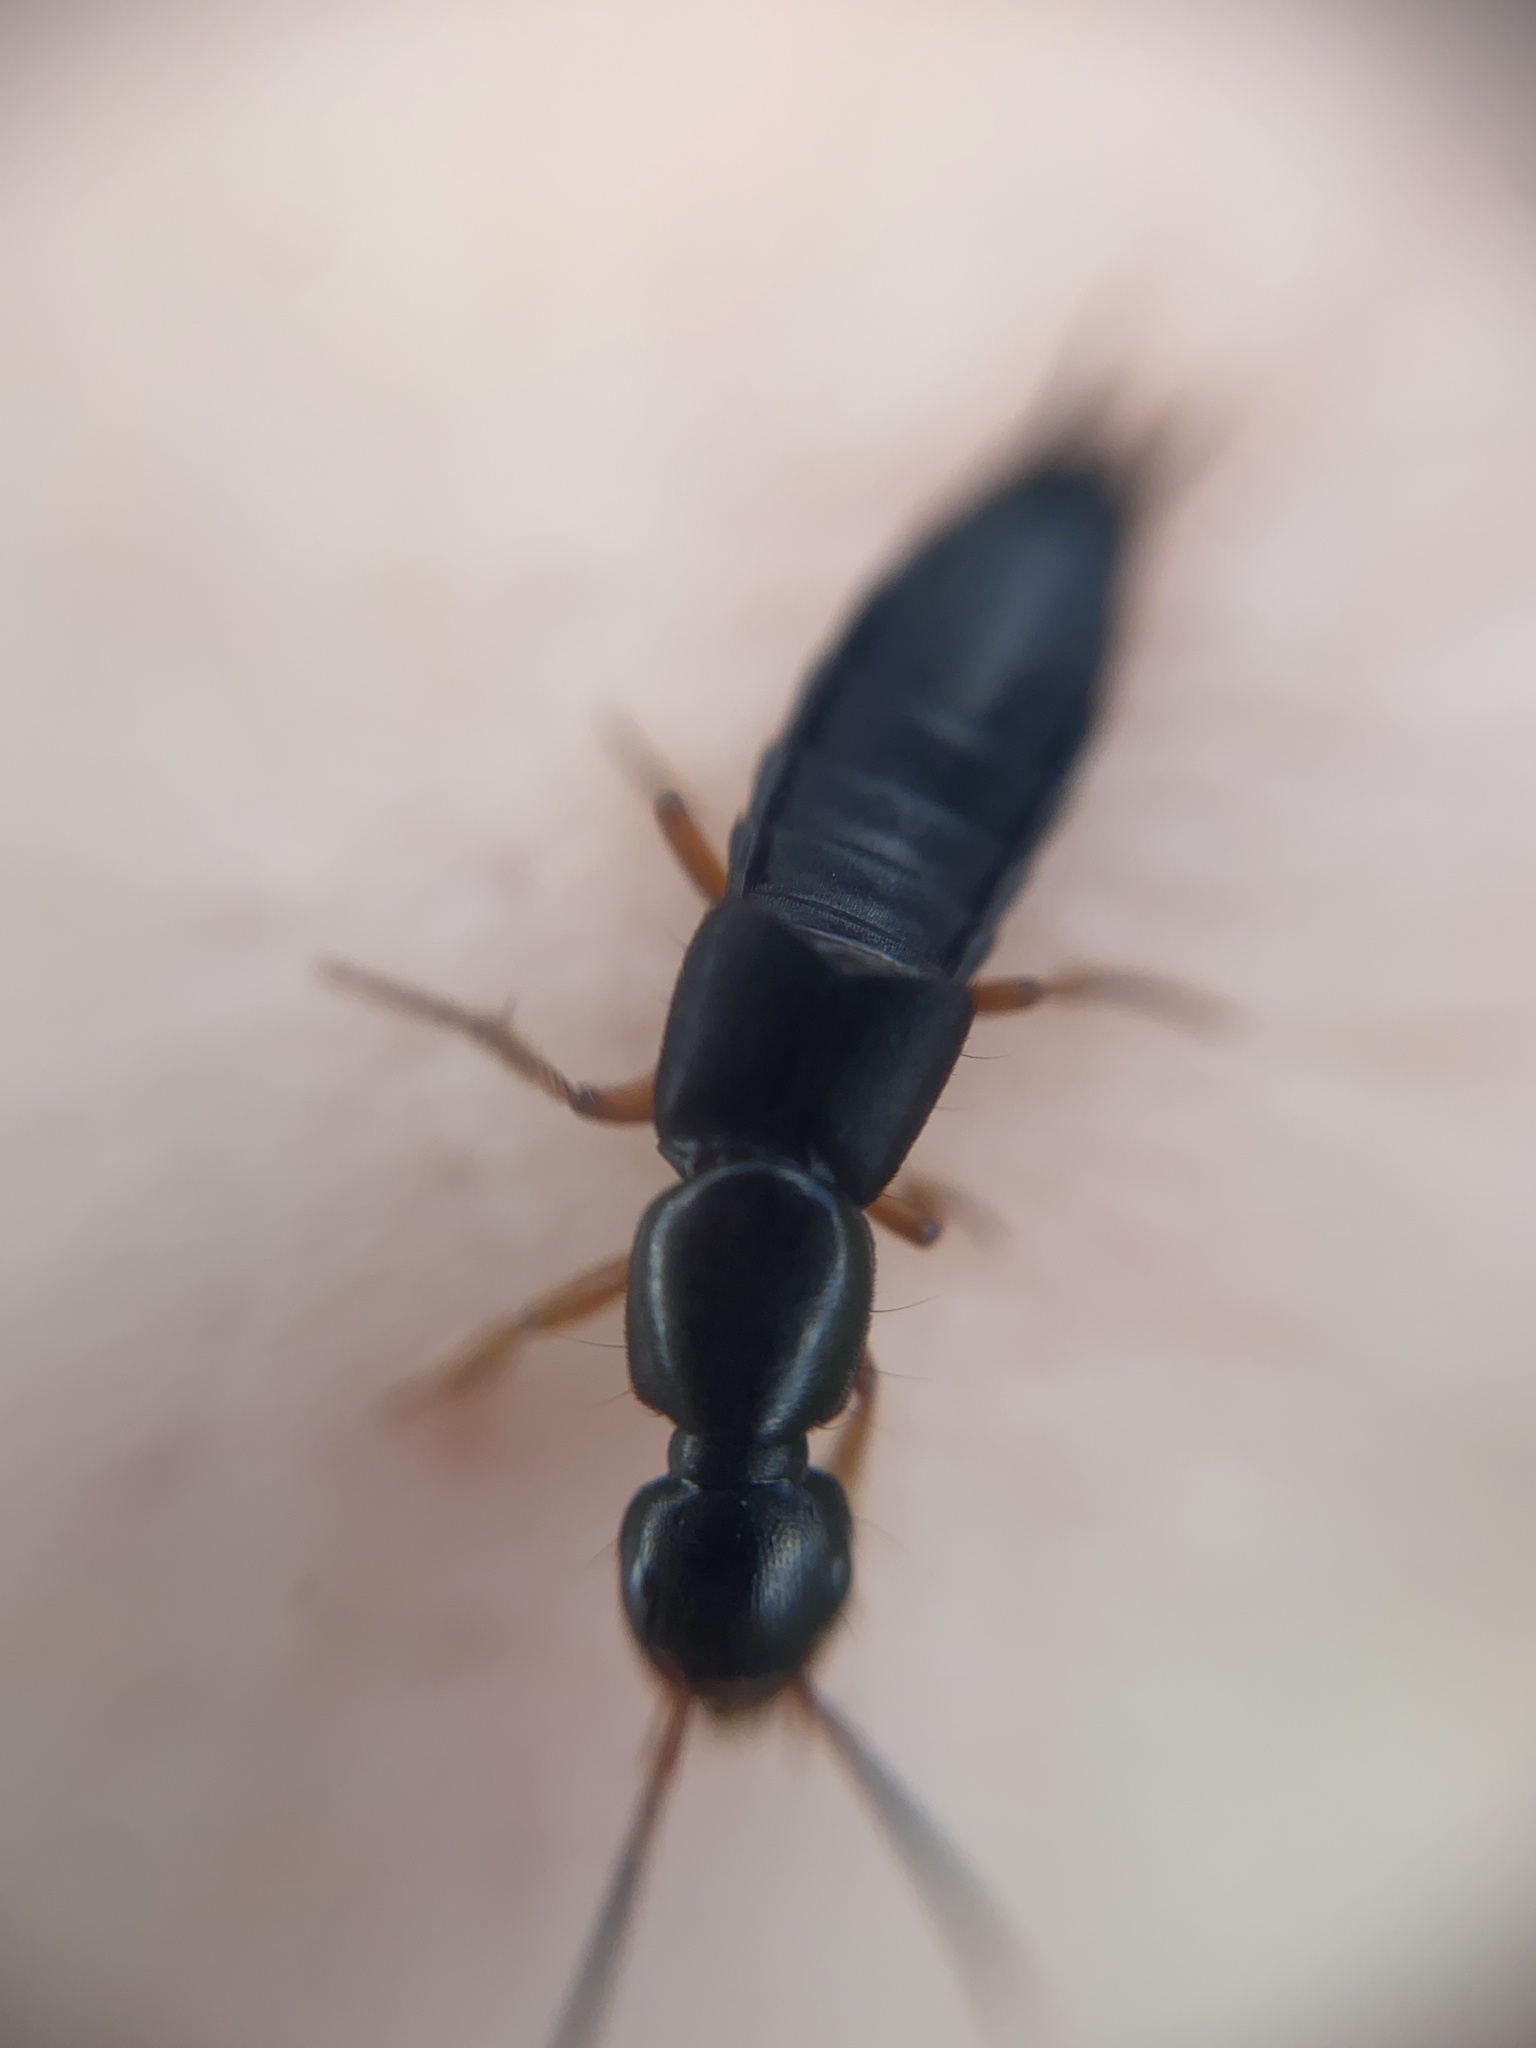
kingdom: Animalia
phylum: Arthropoda
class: Insecta
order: Coleoptera
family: Staphylinidae
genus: Ocypus
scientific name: Ocypus brunnipes
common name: Rove beetle
